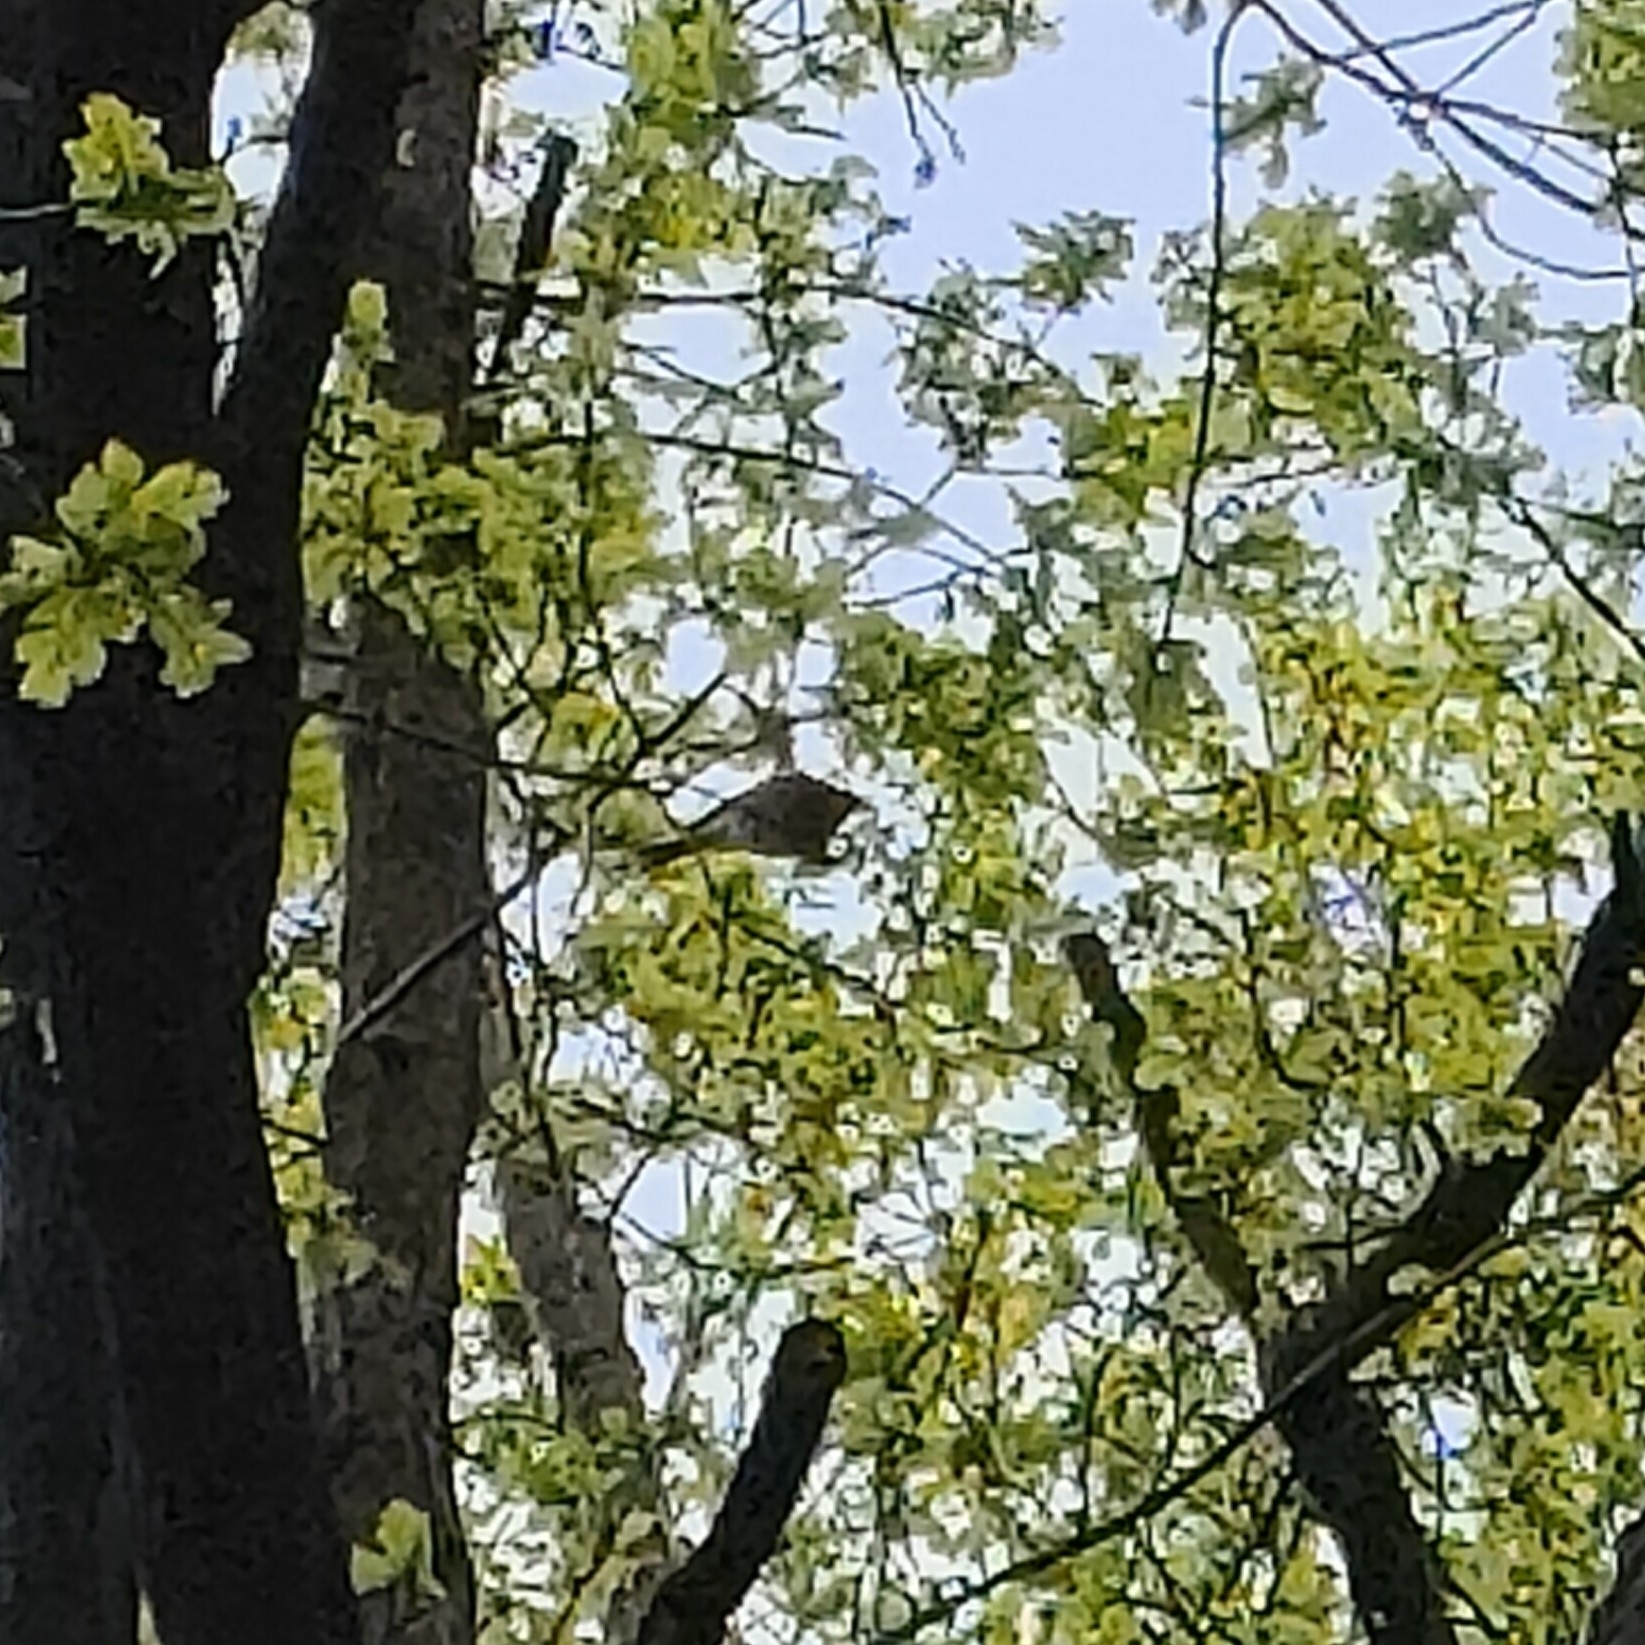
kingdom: Animalia
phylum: Chordata
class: Aves
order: Passeriformes
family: Fringillidae
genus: Fringilla
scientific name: Fringilla coelebs
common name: Common chaffinch
